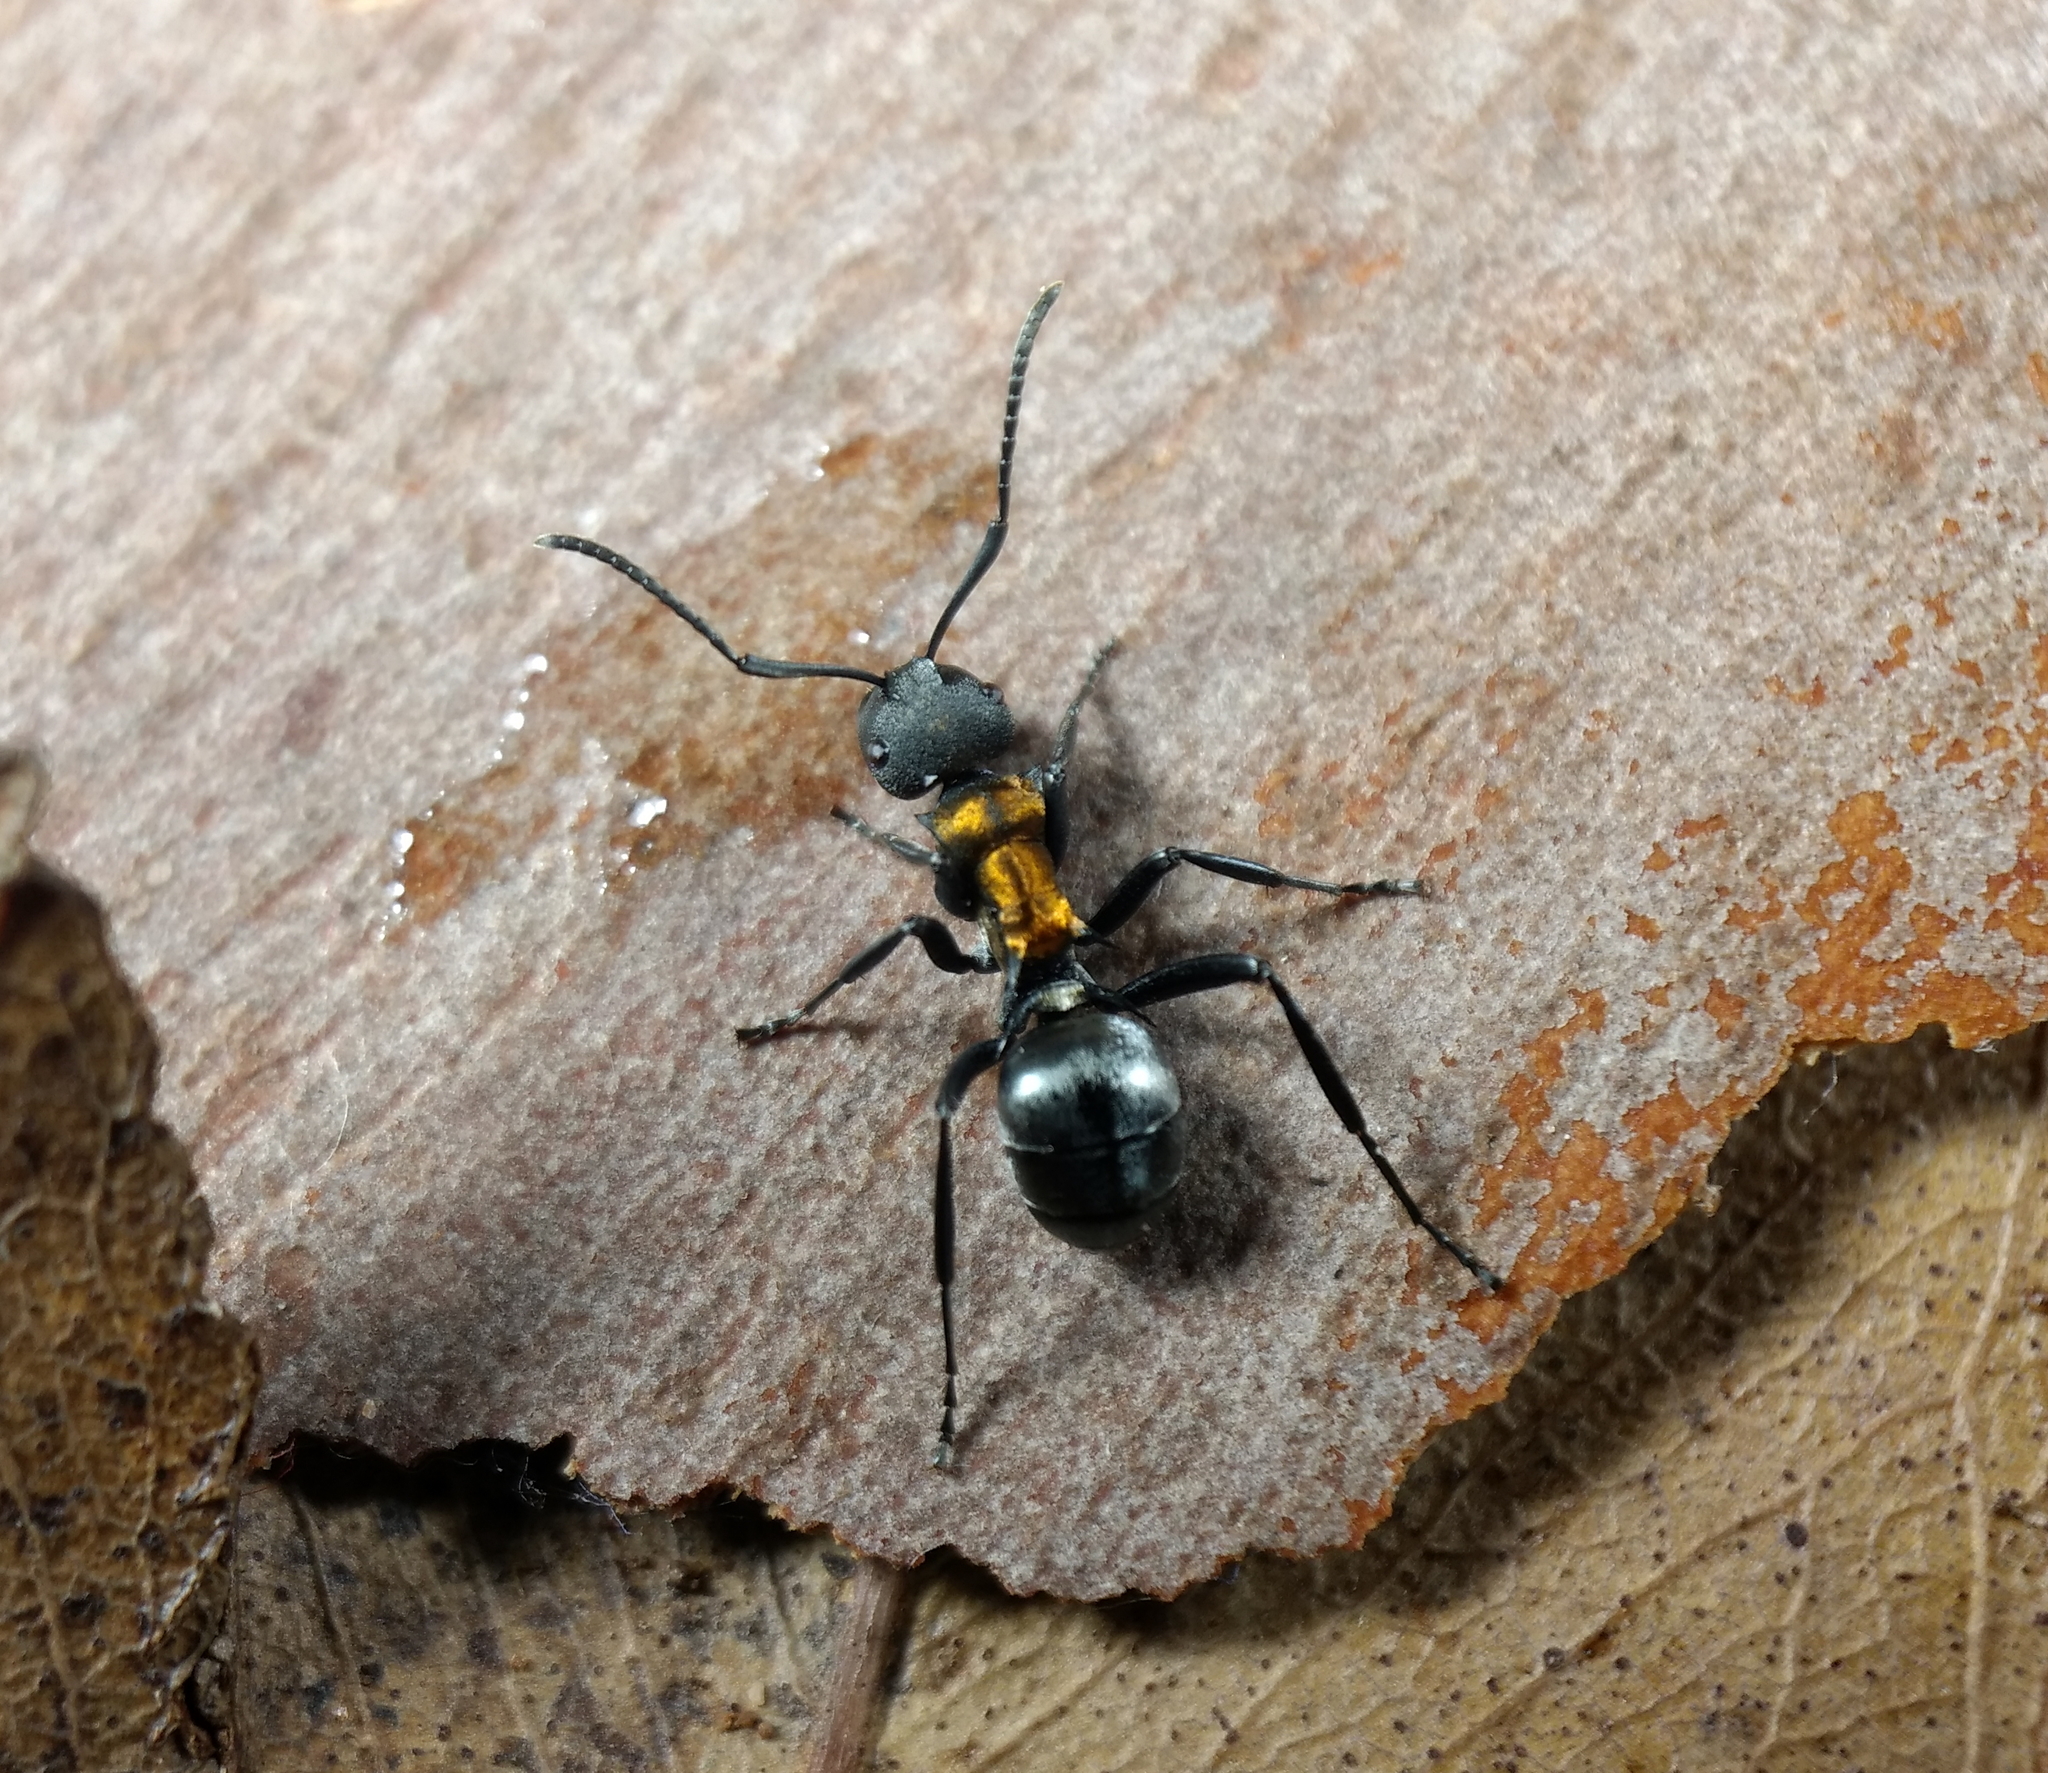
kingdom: Animalia
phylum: Arthropoda
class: Insecta
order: Hymenoptera
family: Formicidae
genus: Polyrhachis
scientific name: Polyrhachis ornata
